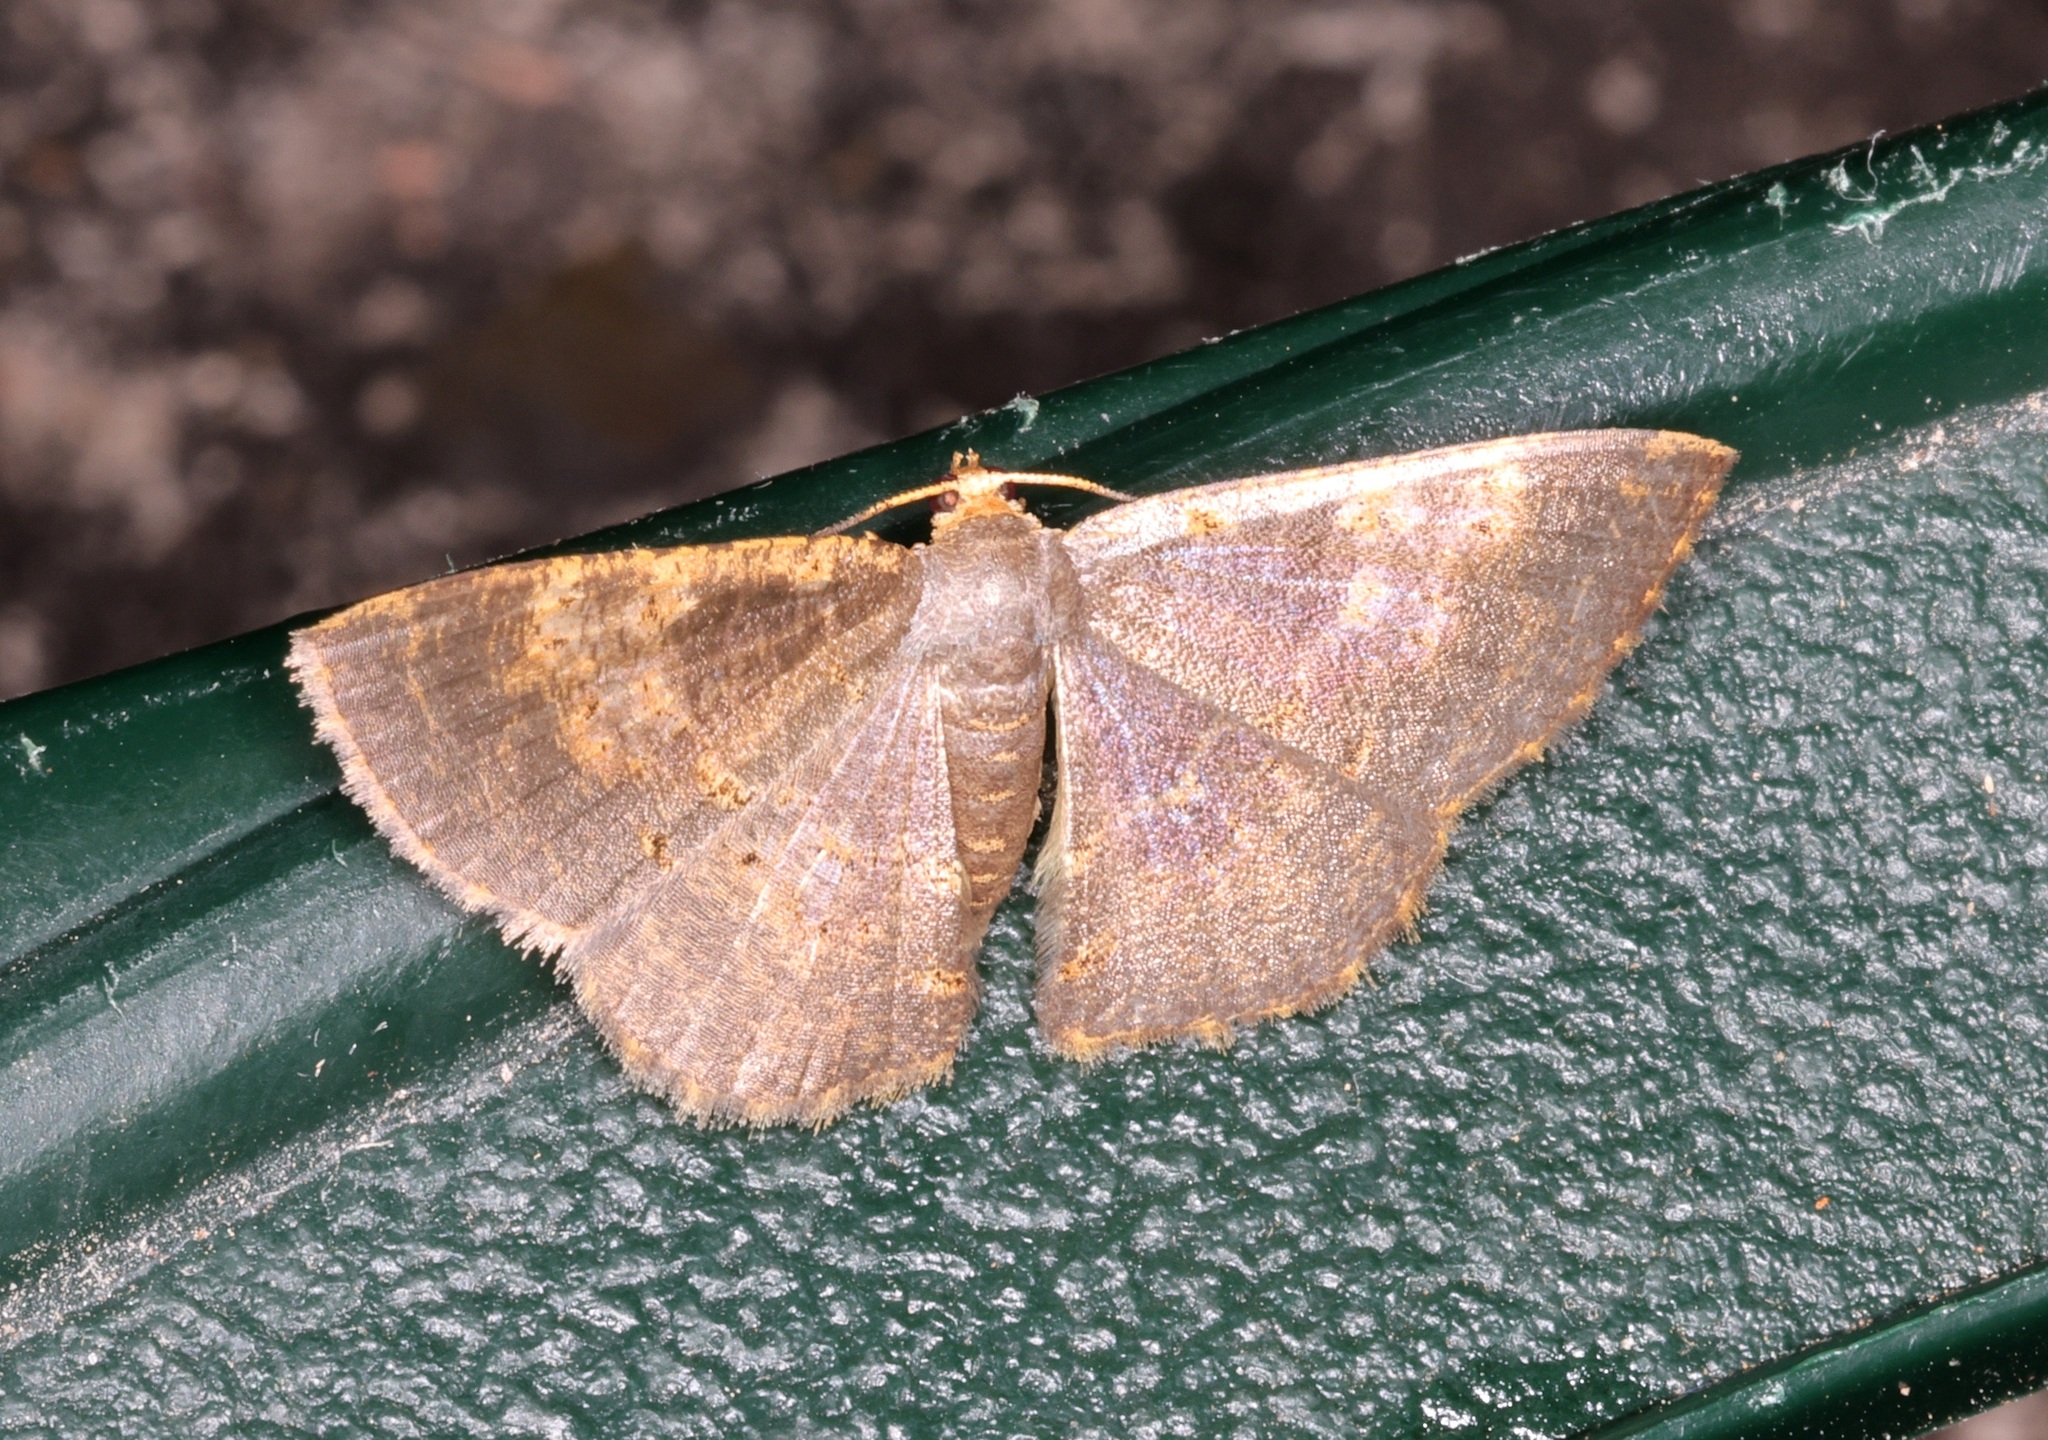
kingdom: Animalia
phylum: Arthropoda
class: Insecta
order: Lepidoptera
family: Geometridae
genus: Peratophyga
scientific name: Peratophyga crista
